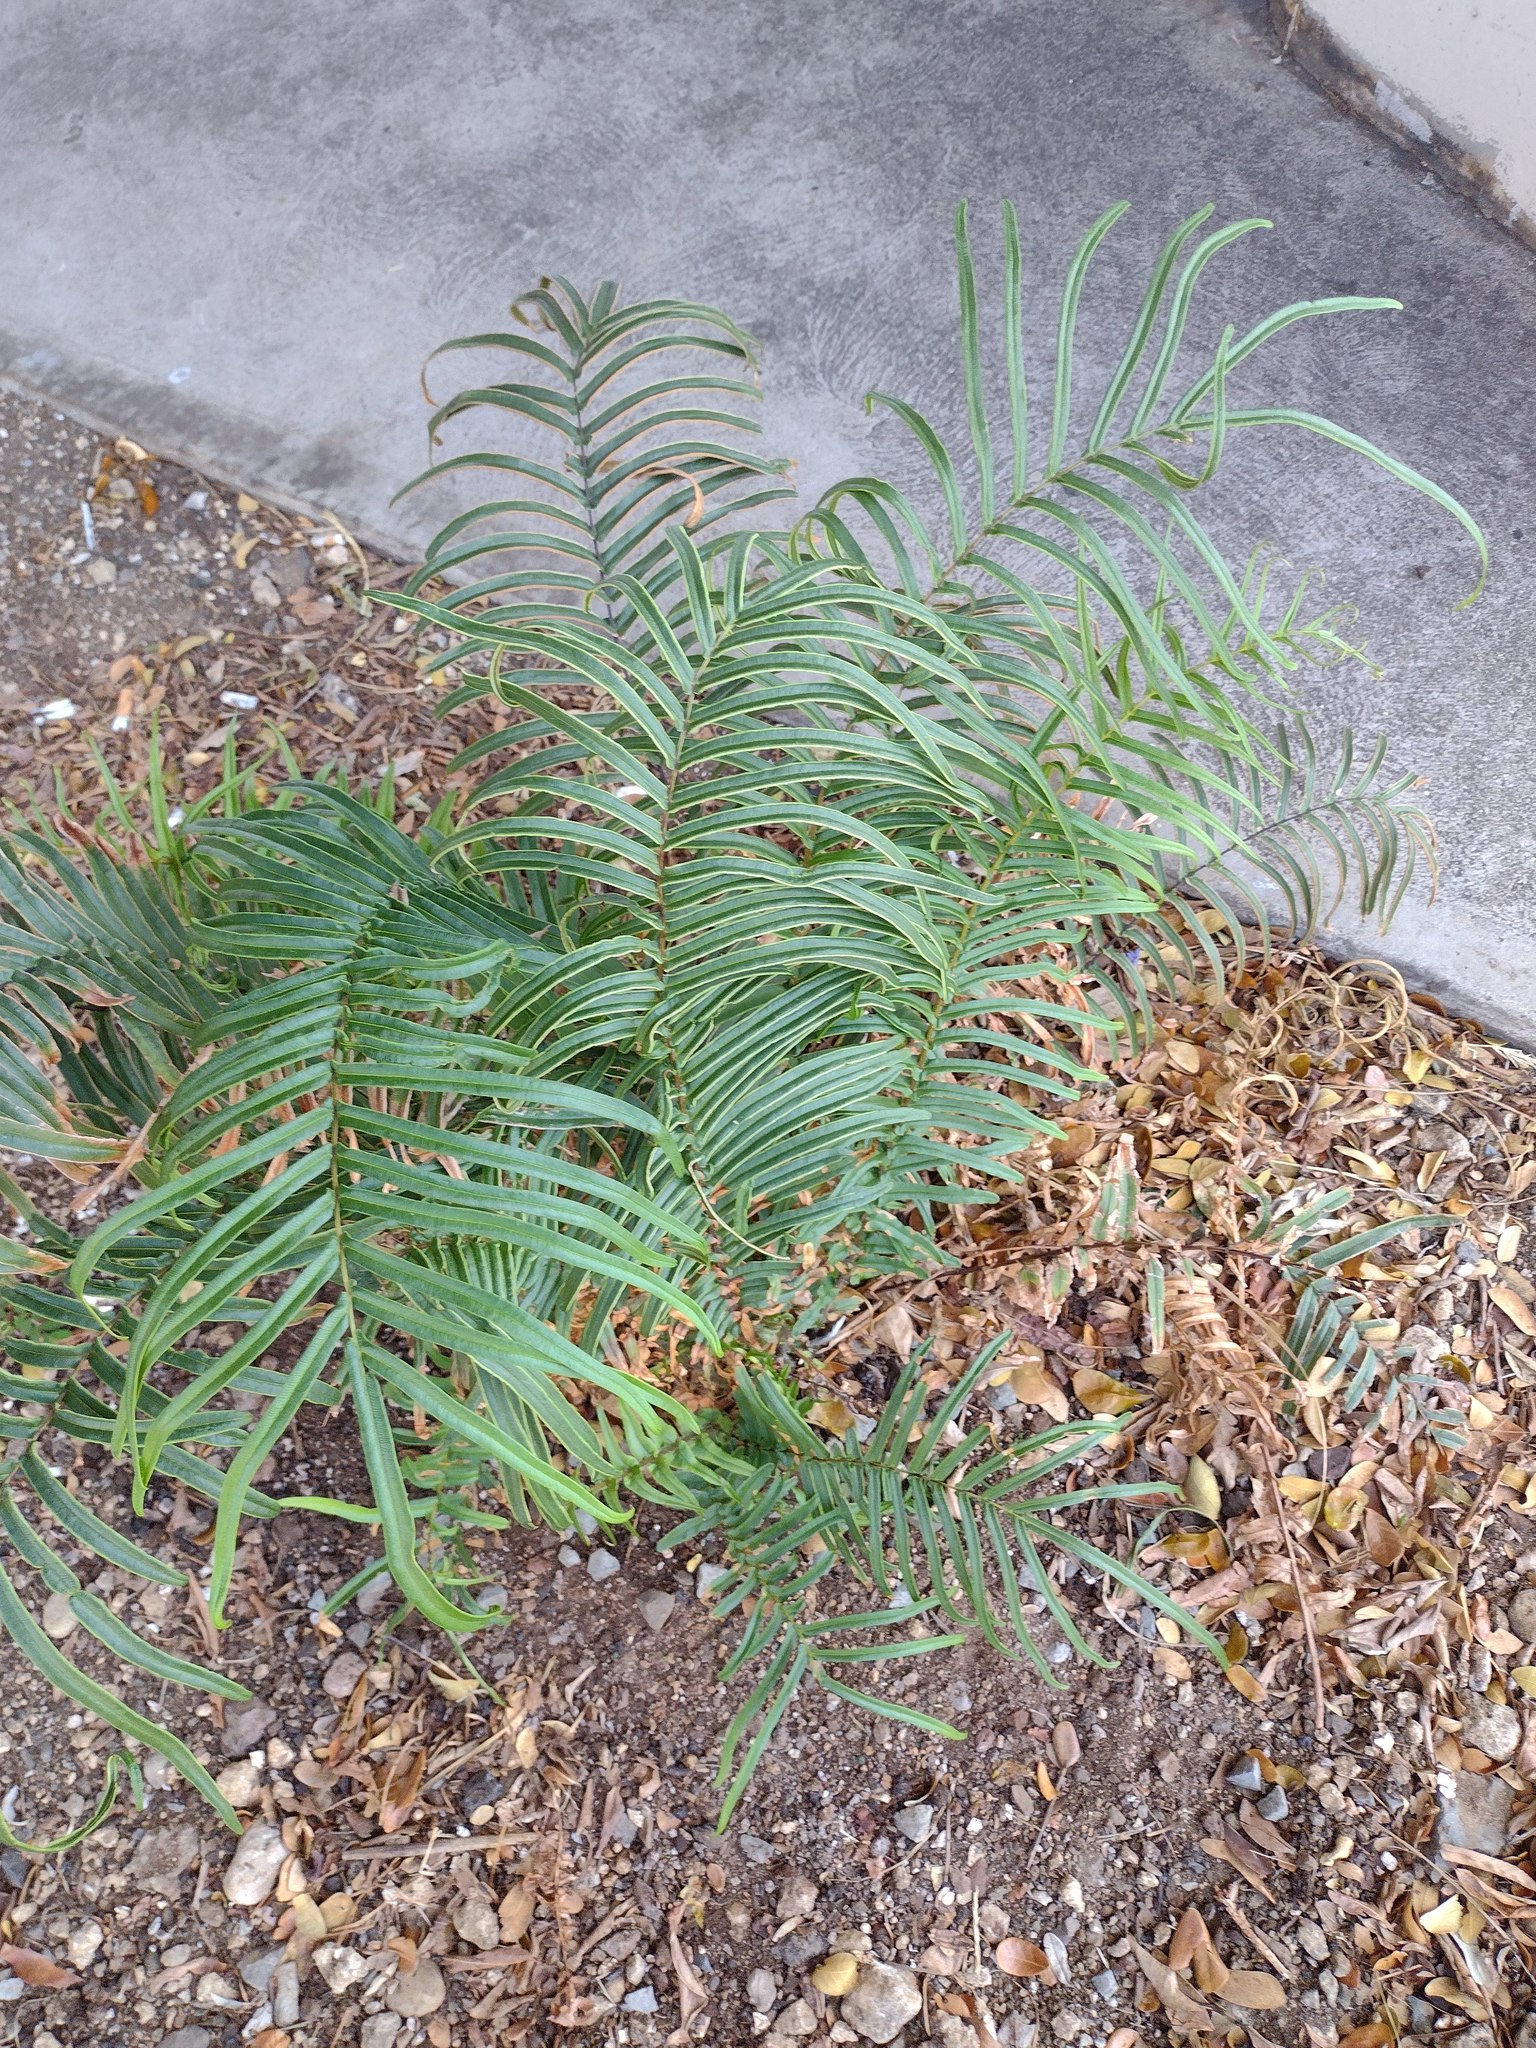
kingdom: Plantae
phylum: Tracheophyta
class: Polypodiopsida
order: Polypodiales
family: Pteridaceae
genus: Pteris
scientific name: Pteris vittata
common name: Ladder brake
